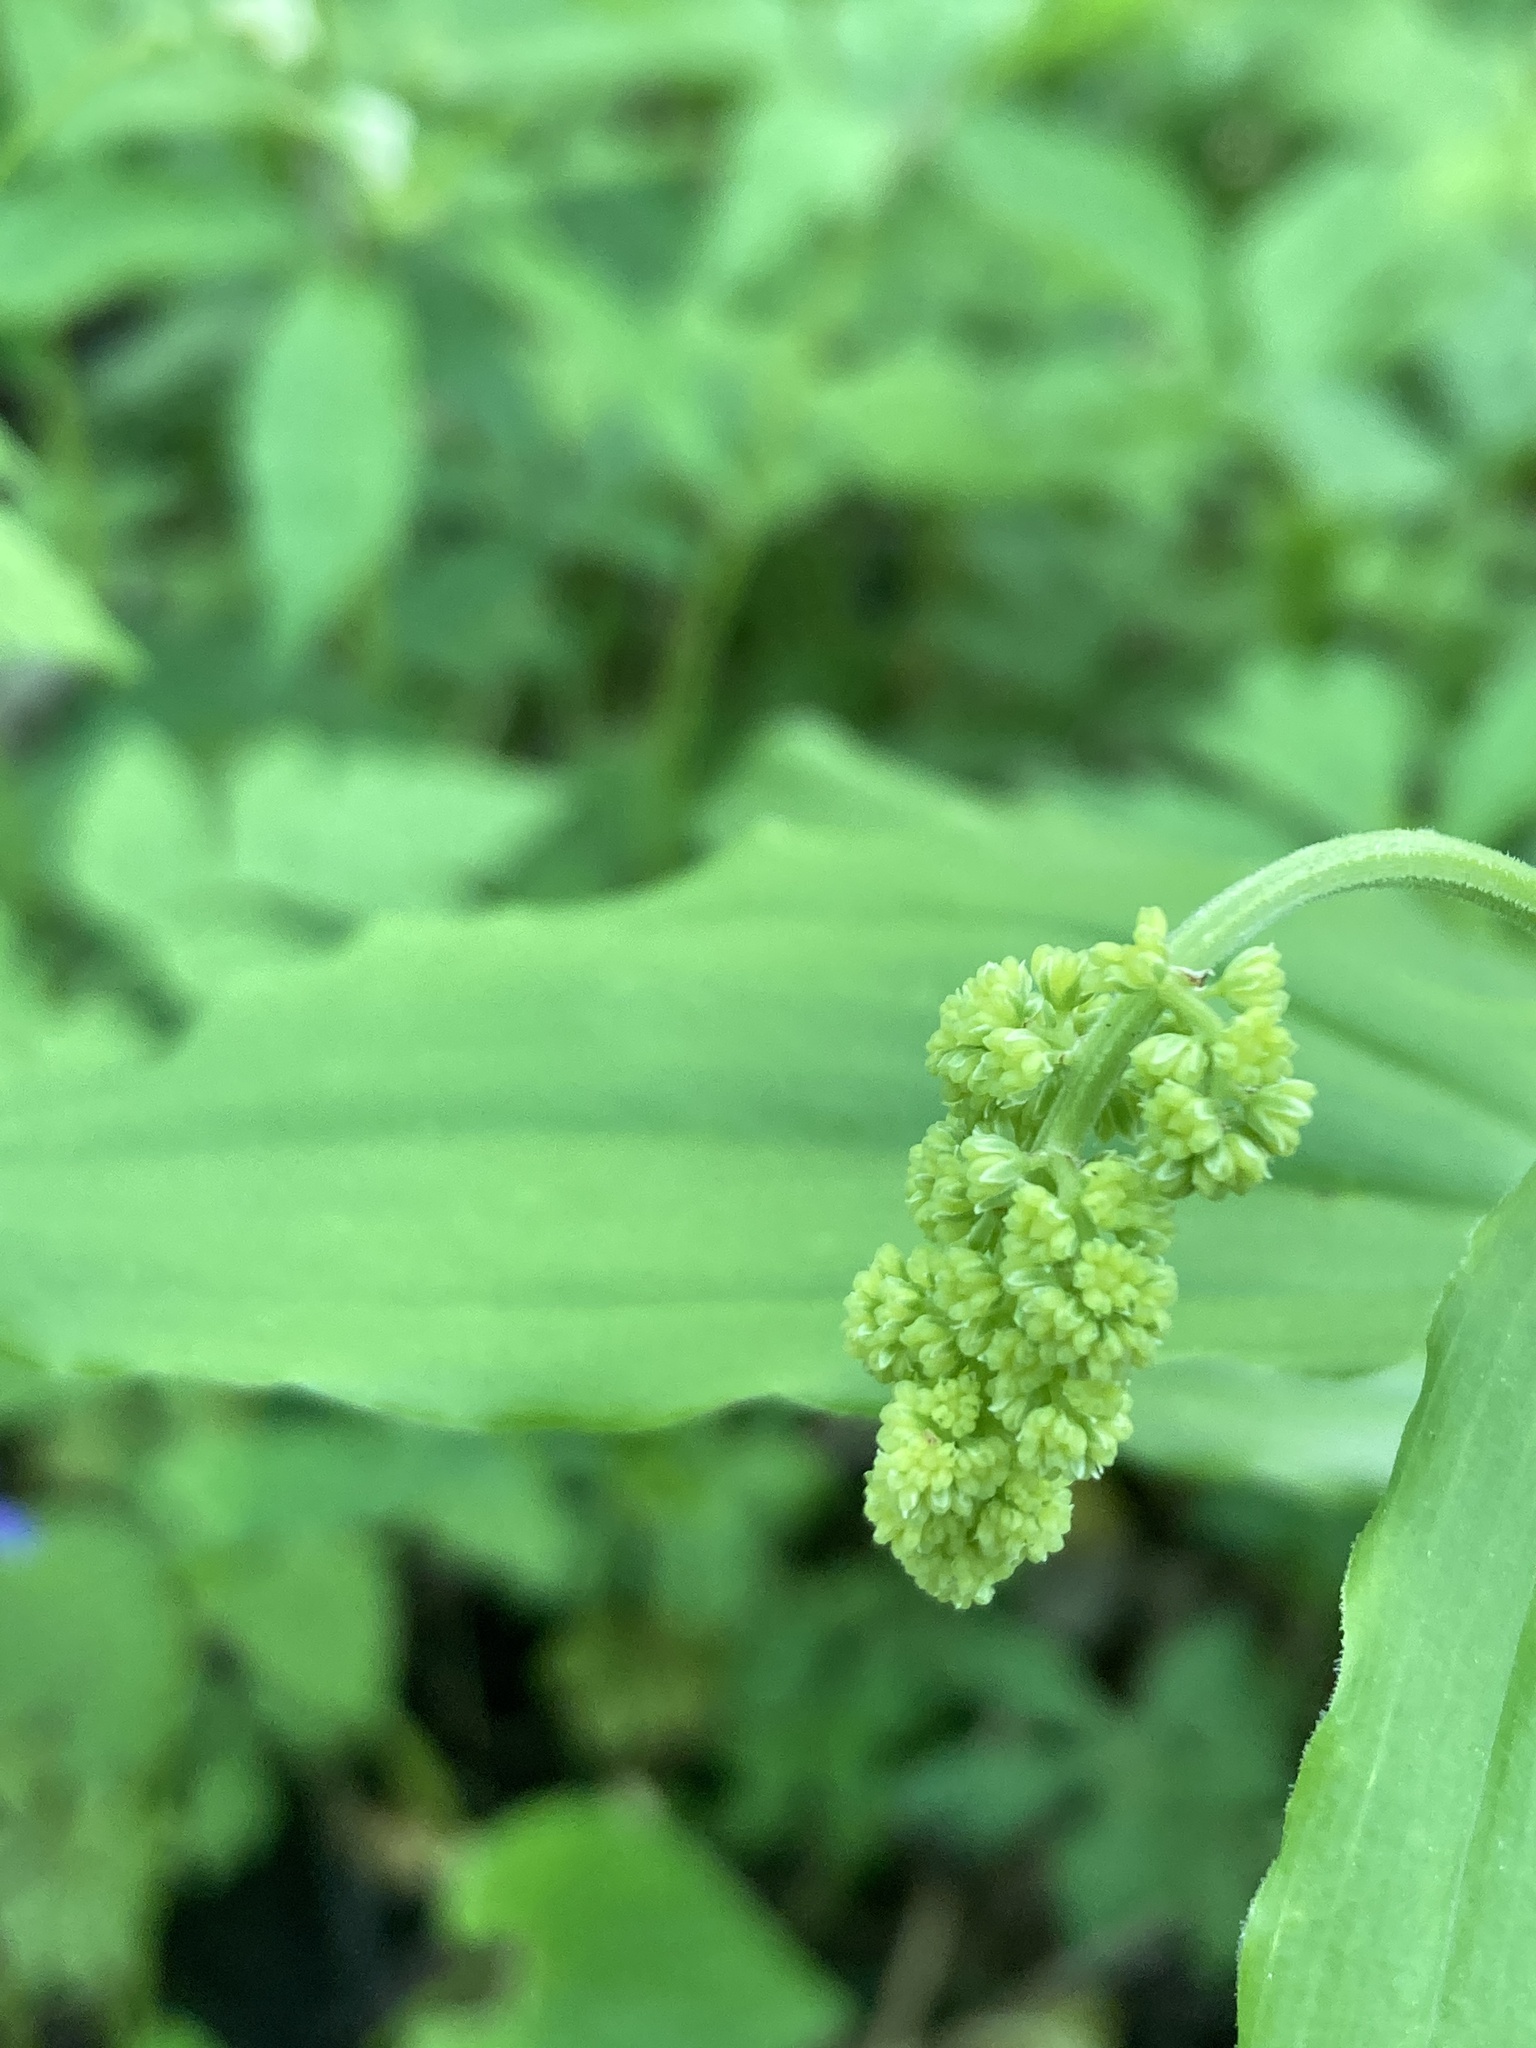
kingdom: Plantae
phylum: Tracheophyta
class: Liliopsida
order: Asparagales
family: Asparagaceae
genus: Maianthemum
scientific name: Maianthemum racemosum
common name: False spikenard
